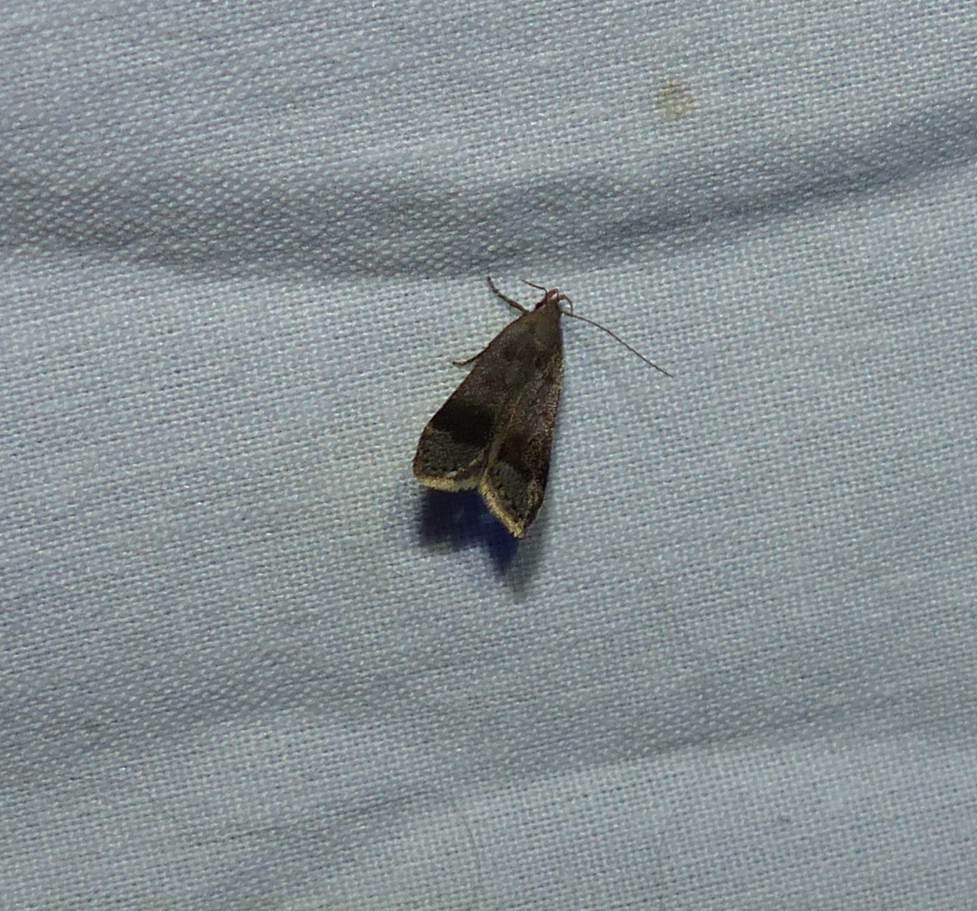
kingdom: Animalia
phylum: Arthropoda
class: Insecta
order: Lepidoptera
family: Gelechiidae
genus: Anacampsis
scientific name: Anacampsis fragariella
